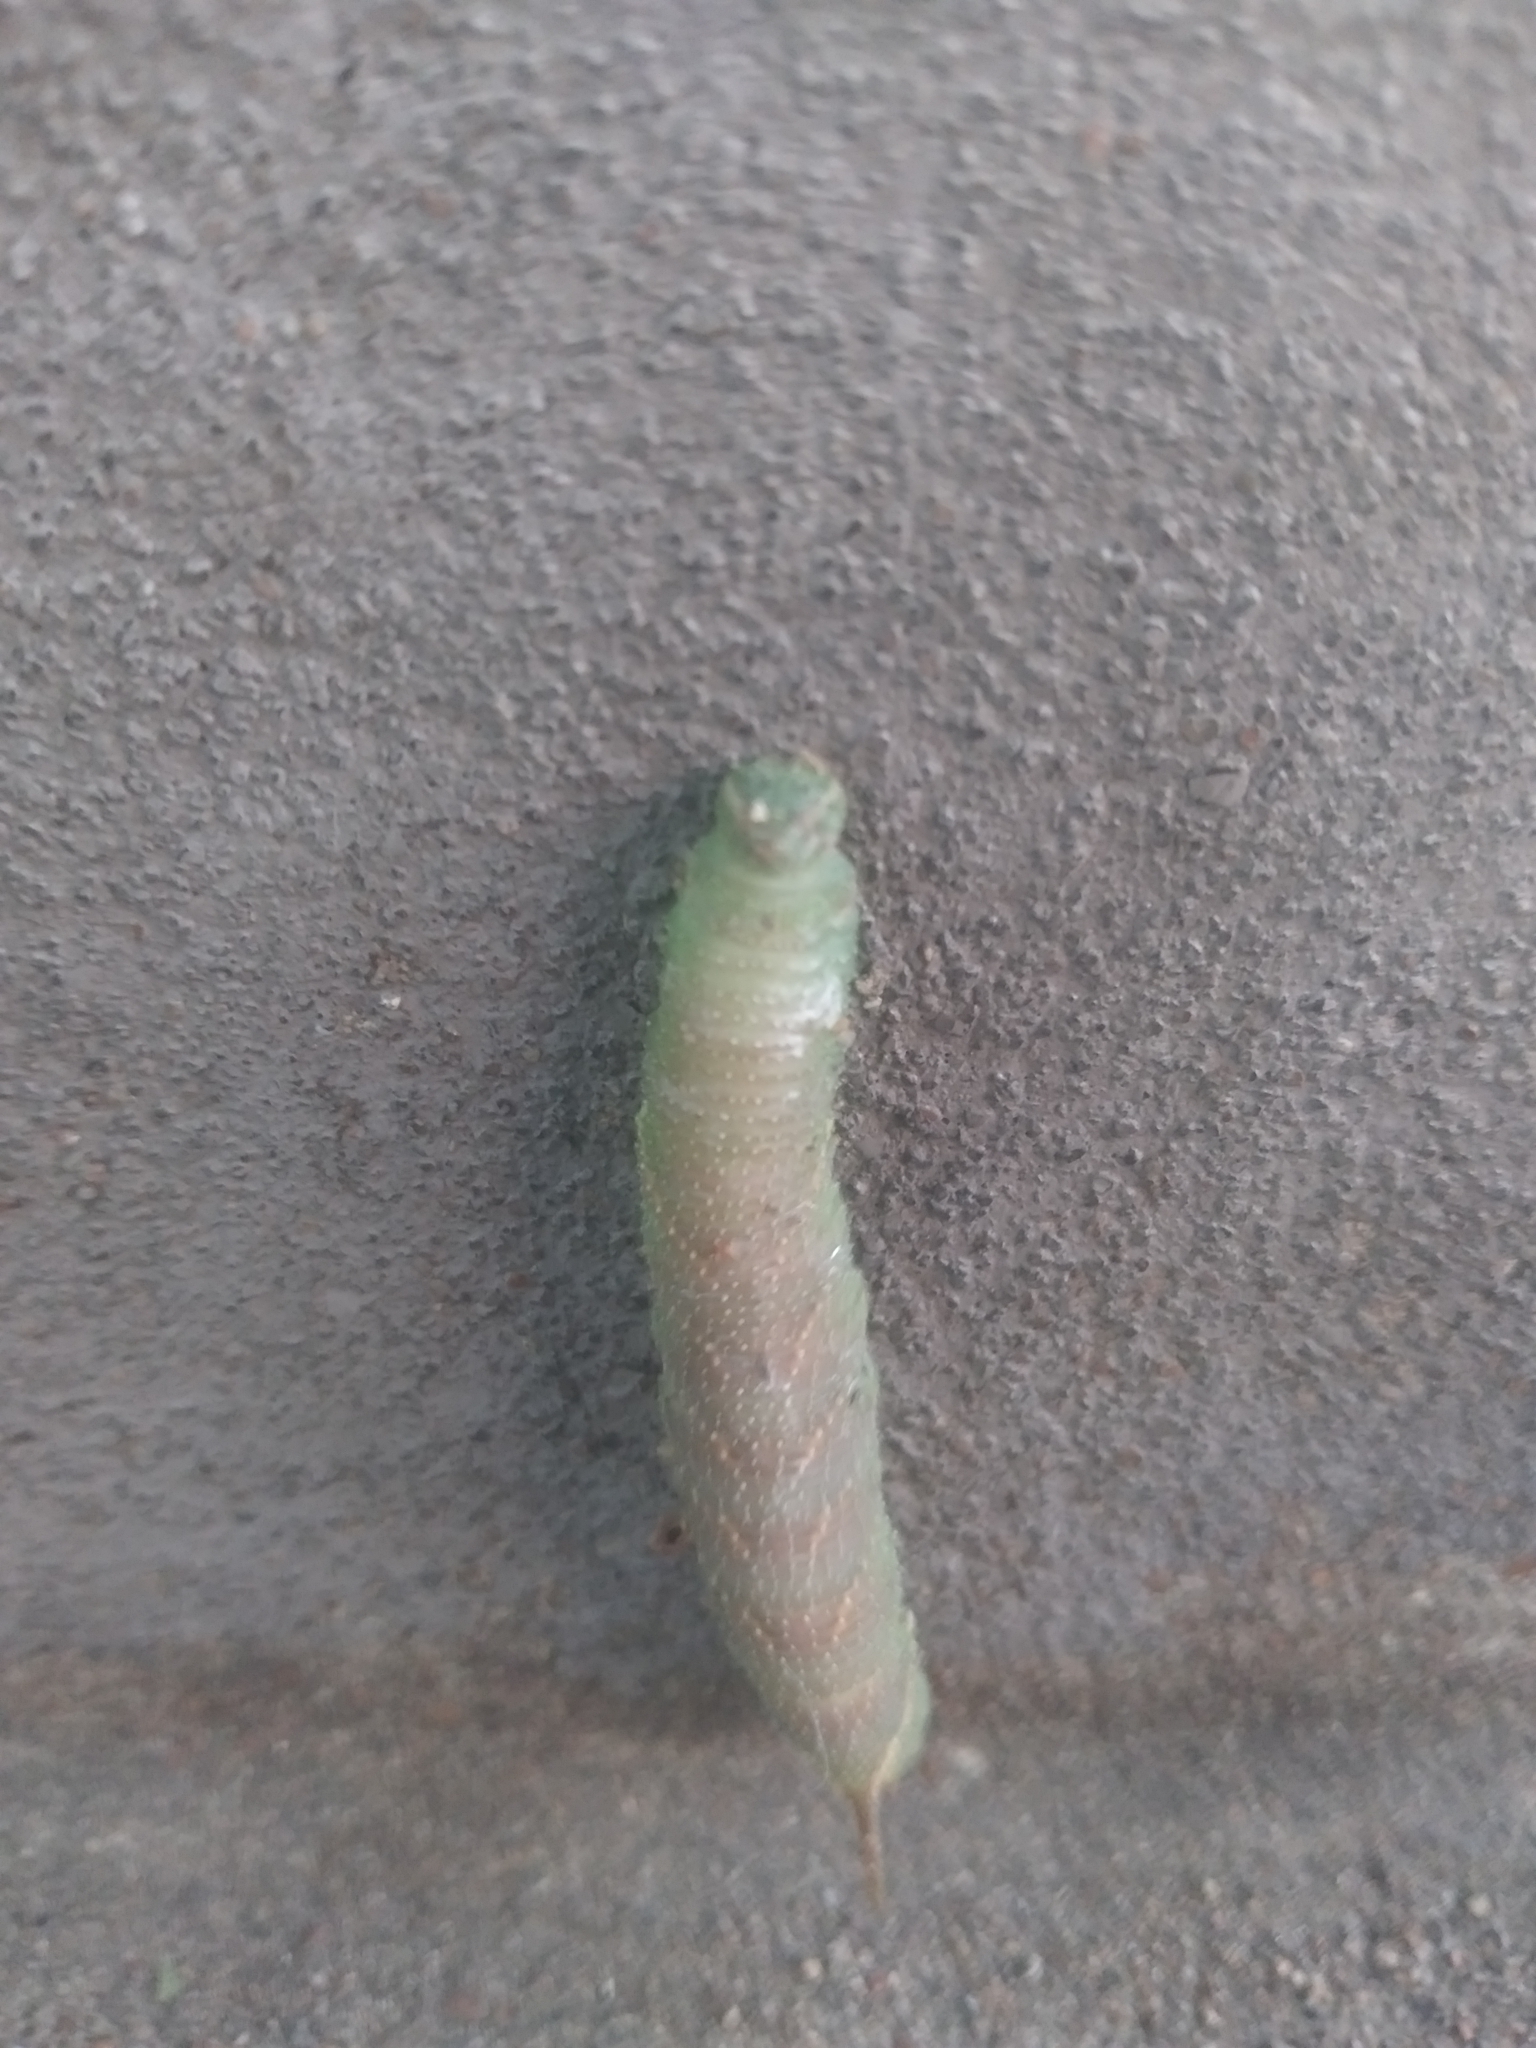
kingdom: Animalia
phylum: Arthropoda
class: Insecta
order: Lepidoptera
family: Sphingidae
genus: Amorpha
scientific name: Amorpha juglandis
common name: Walnut sphinx
